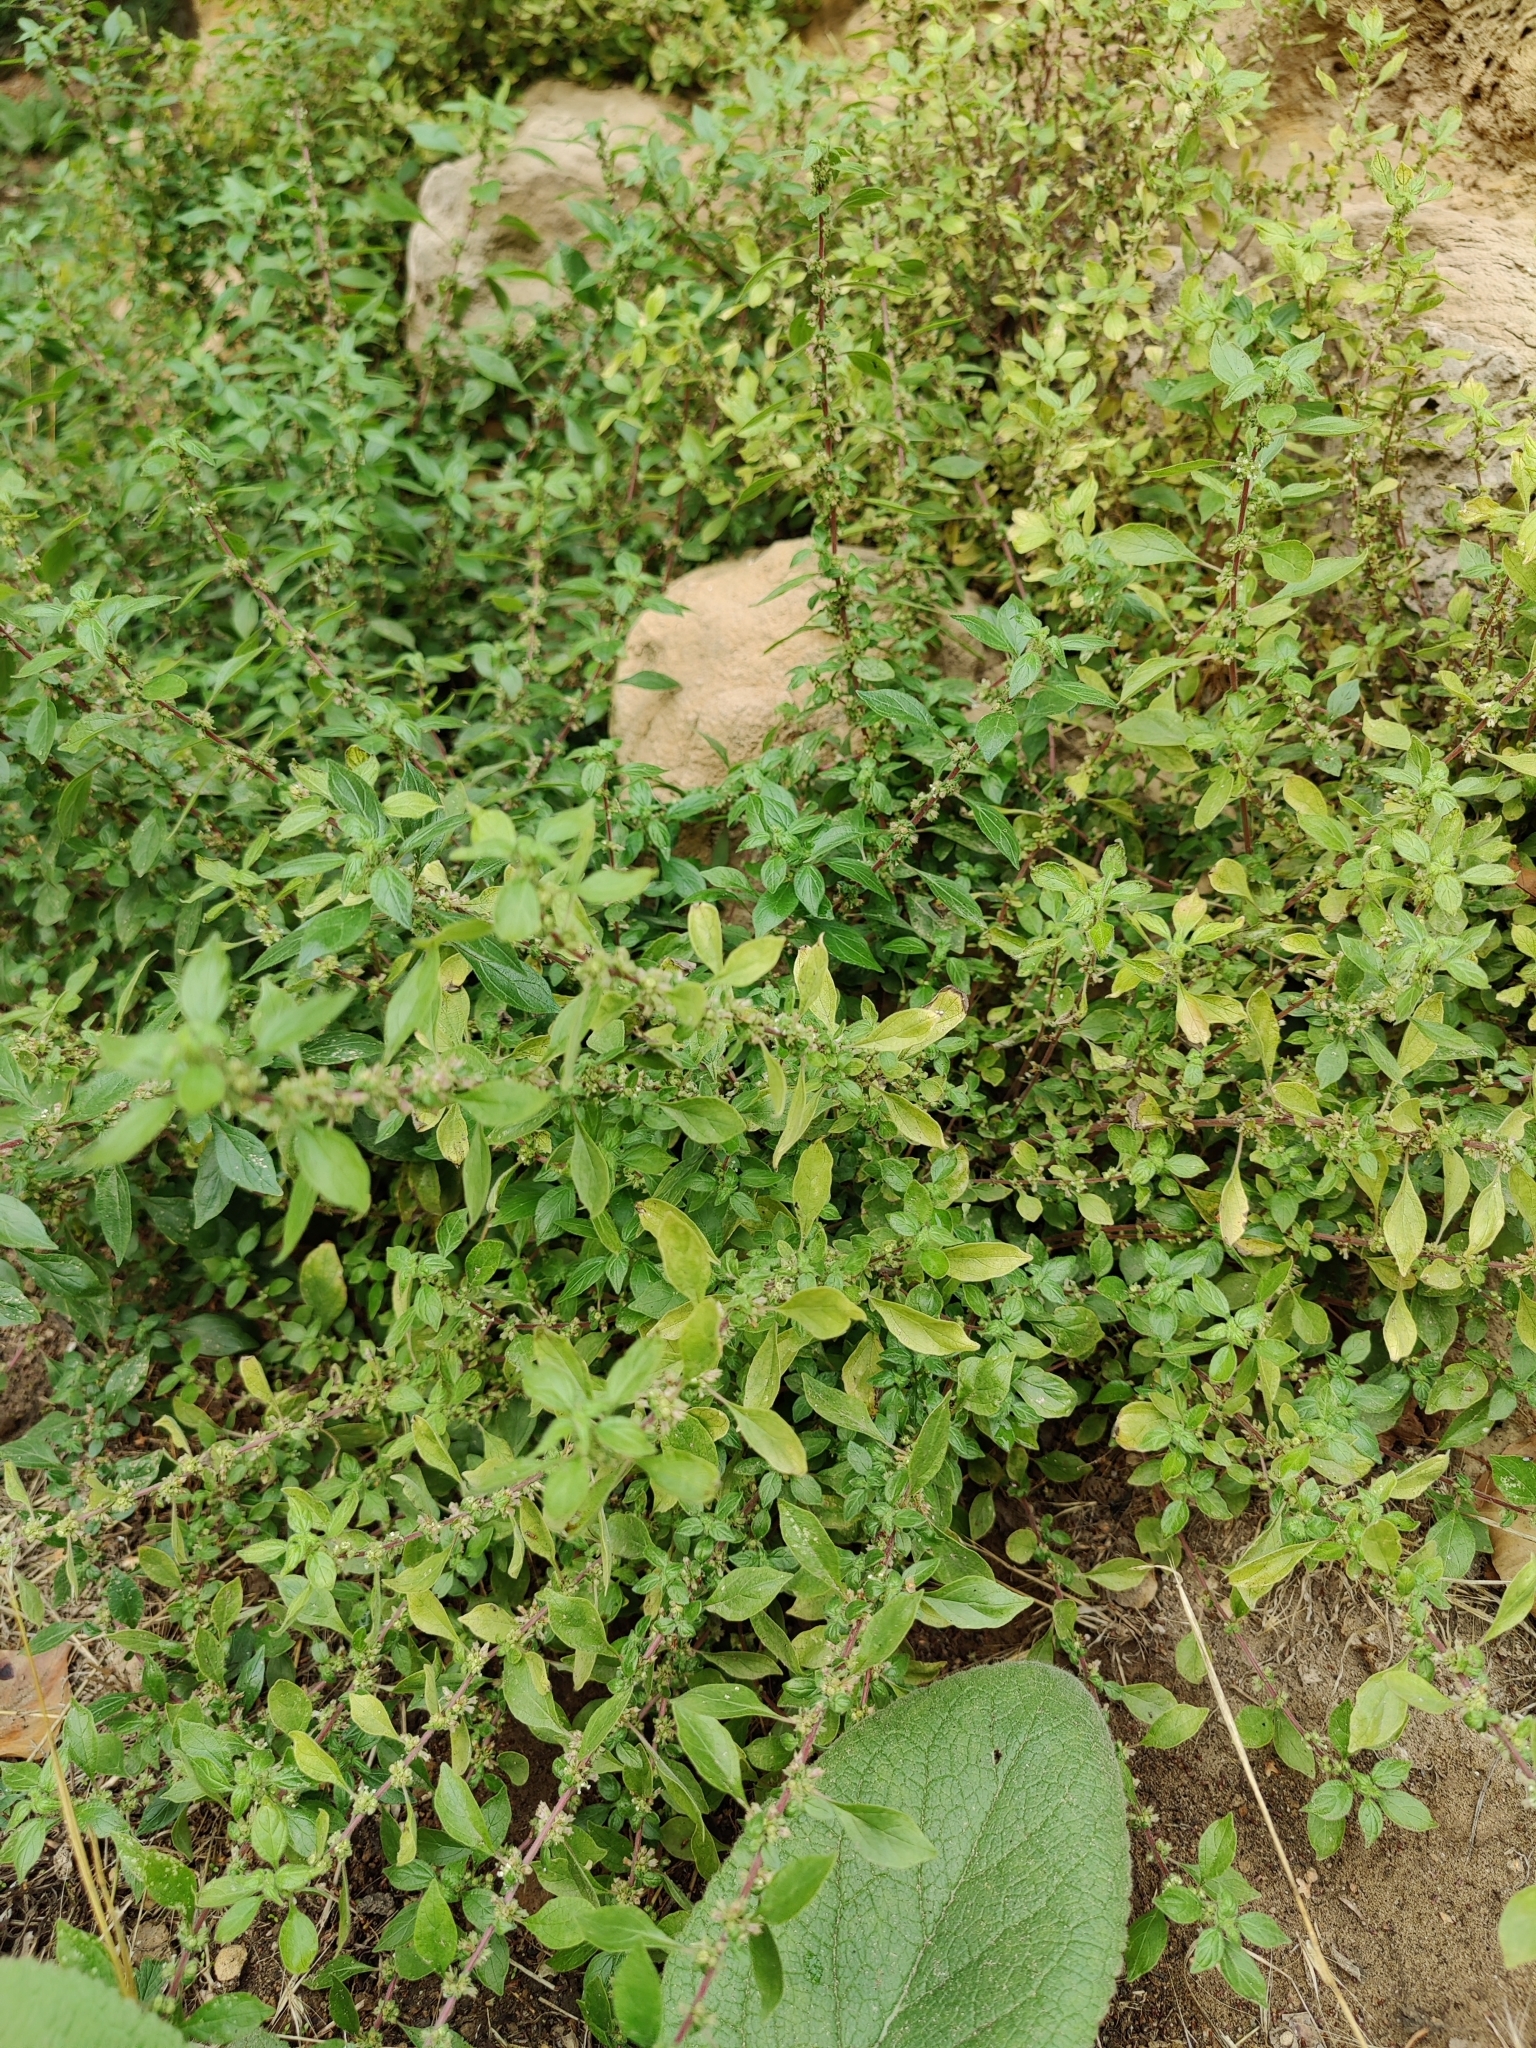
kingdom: Plantae
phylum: Tracheophyta
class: Magnoliopsida
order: Rosales
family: Urticaceae
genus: Parietaria
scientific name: Parietaria judaica
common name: Pellitory-of-the-wall
